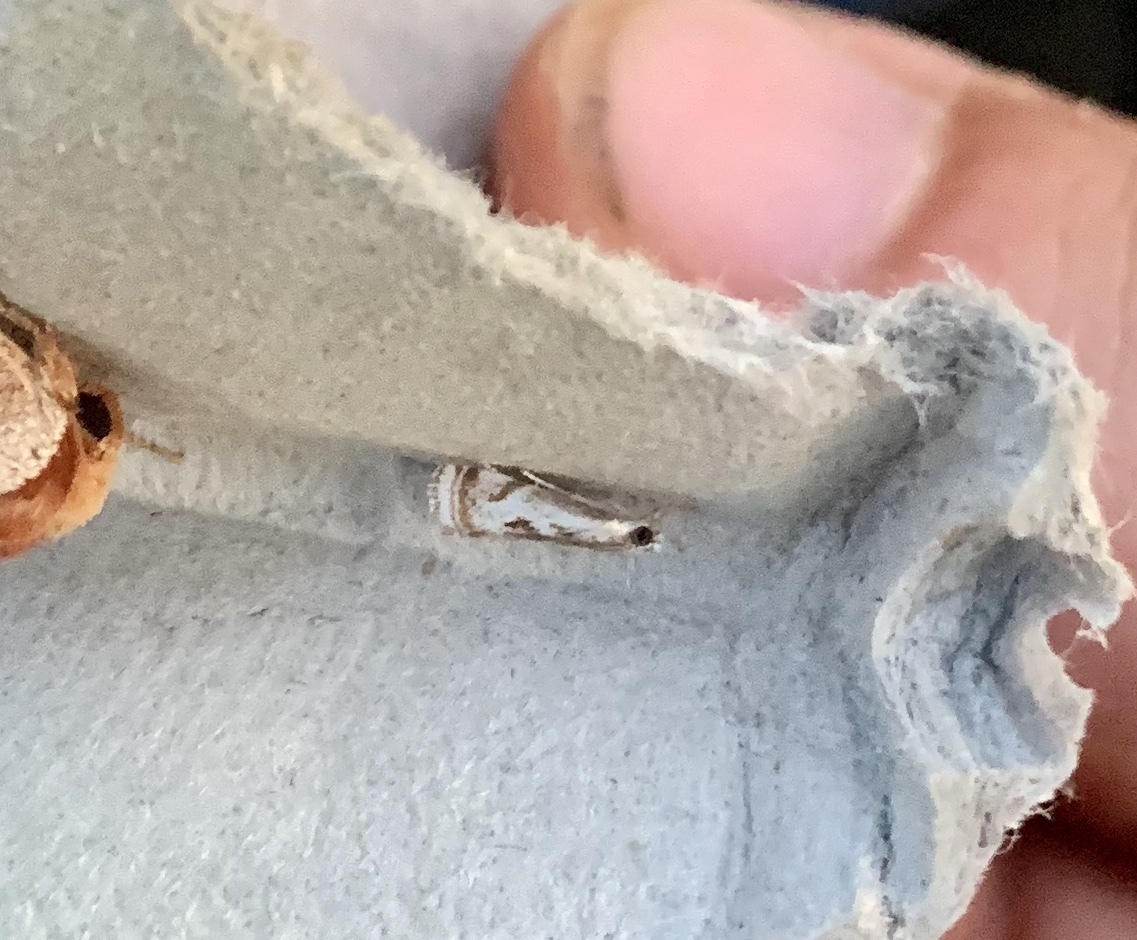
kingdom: Animalia
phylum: Arthropoda
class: Insecta
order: Lepidoptera
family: Crambidae
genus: Microcrambus
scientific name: Microcrambus elegans
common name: Elegant grass-veneer
